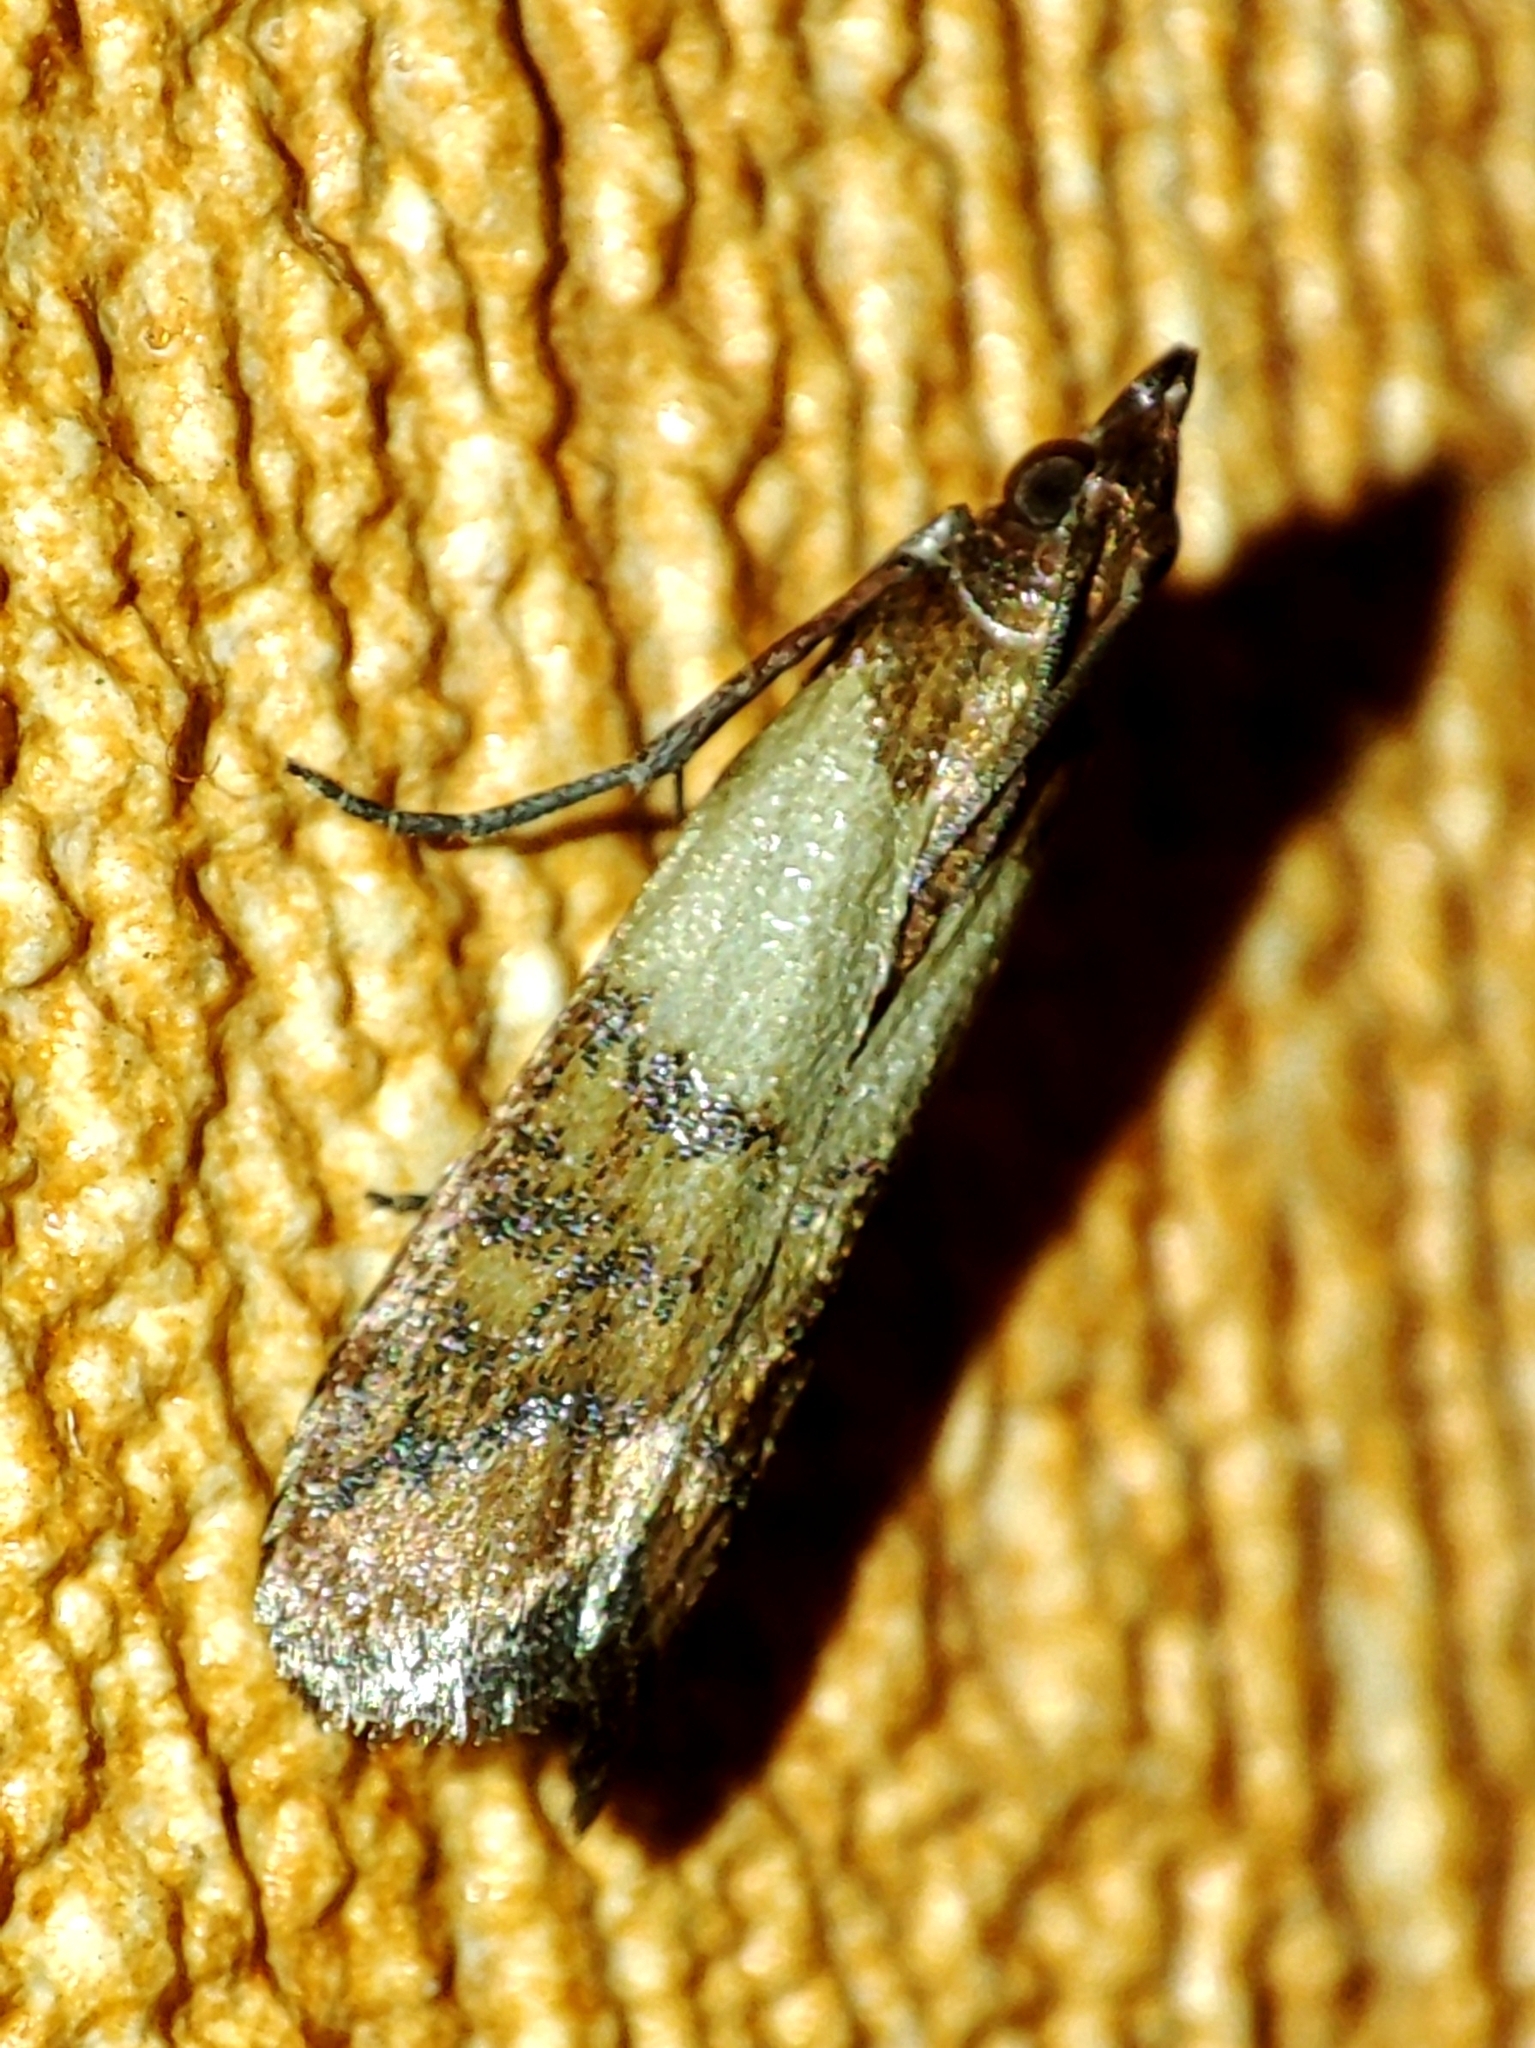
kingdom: Animalia
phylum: Arthropoda
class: Insecta
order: Lepidoptera
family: Pyralidae
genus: Plodia
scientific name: Plodia interpunctella
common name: Indian meal moth
